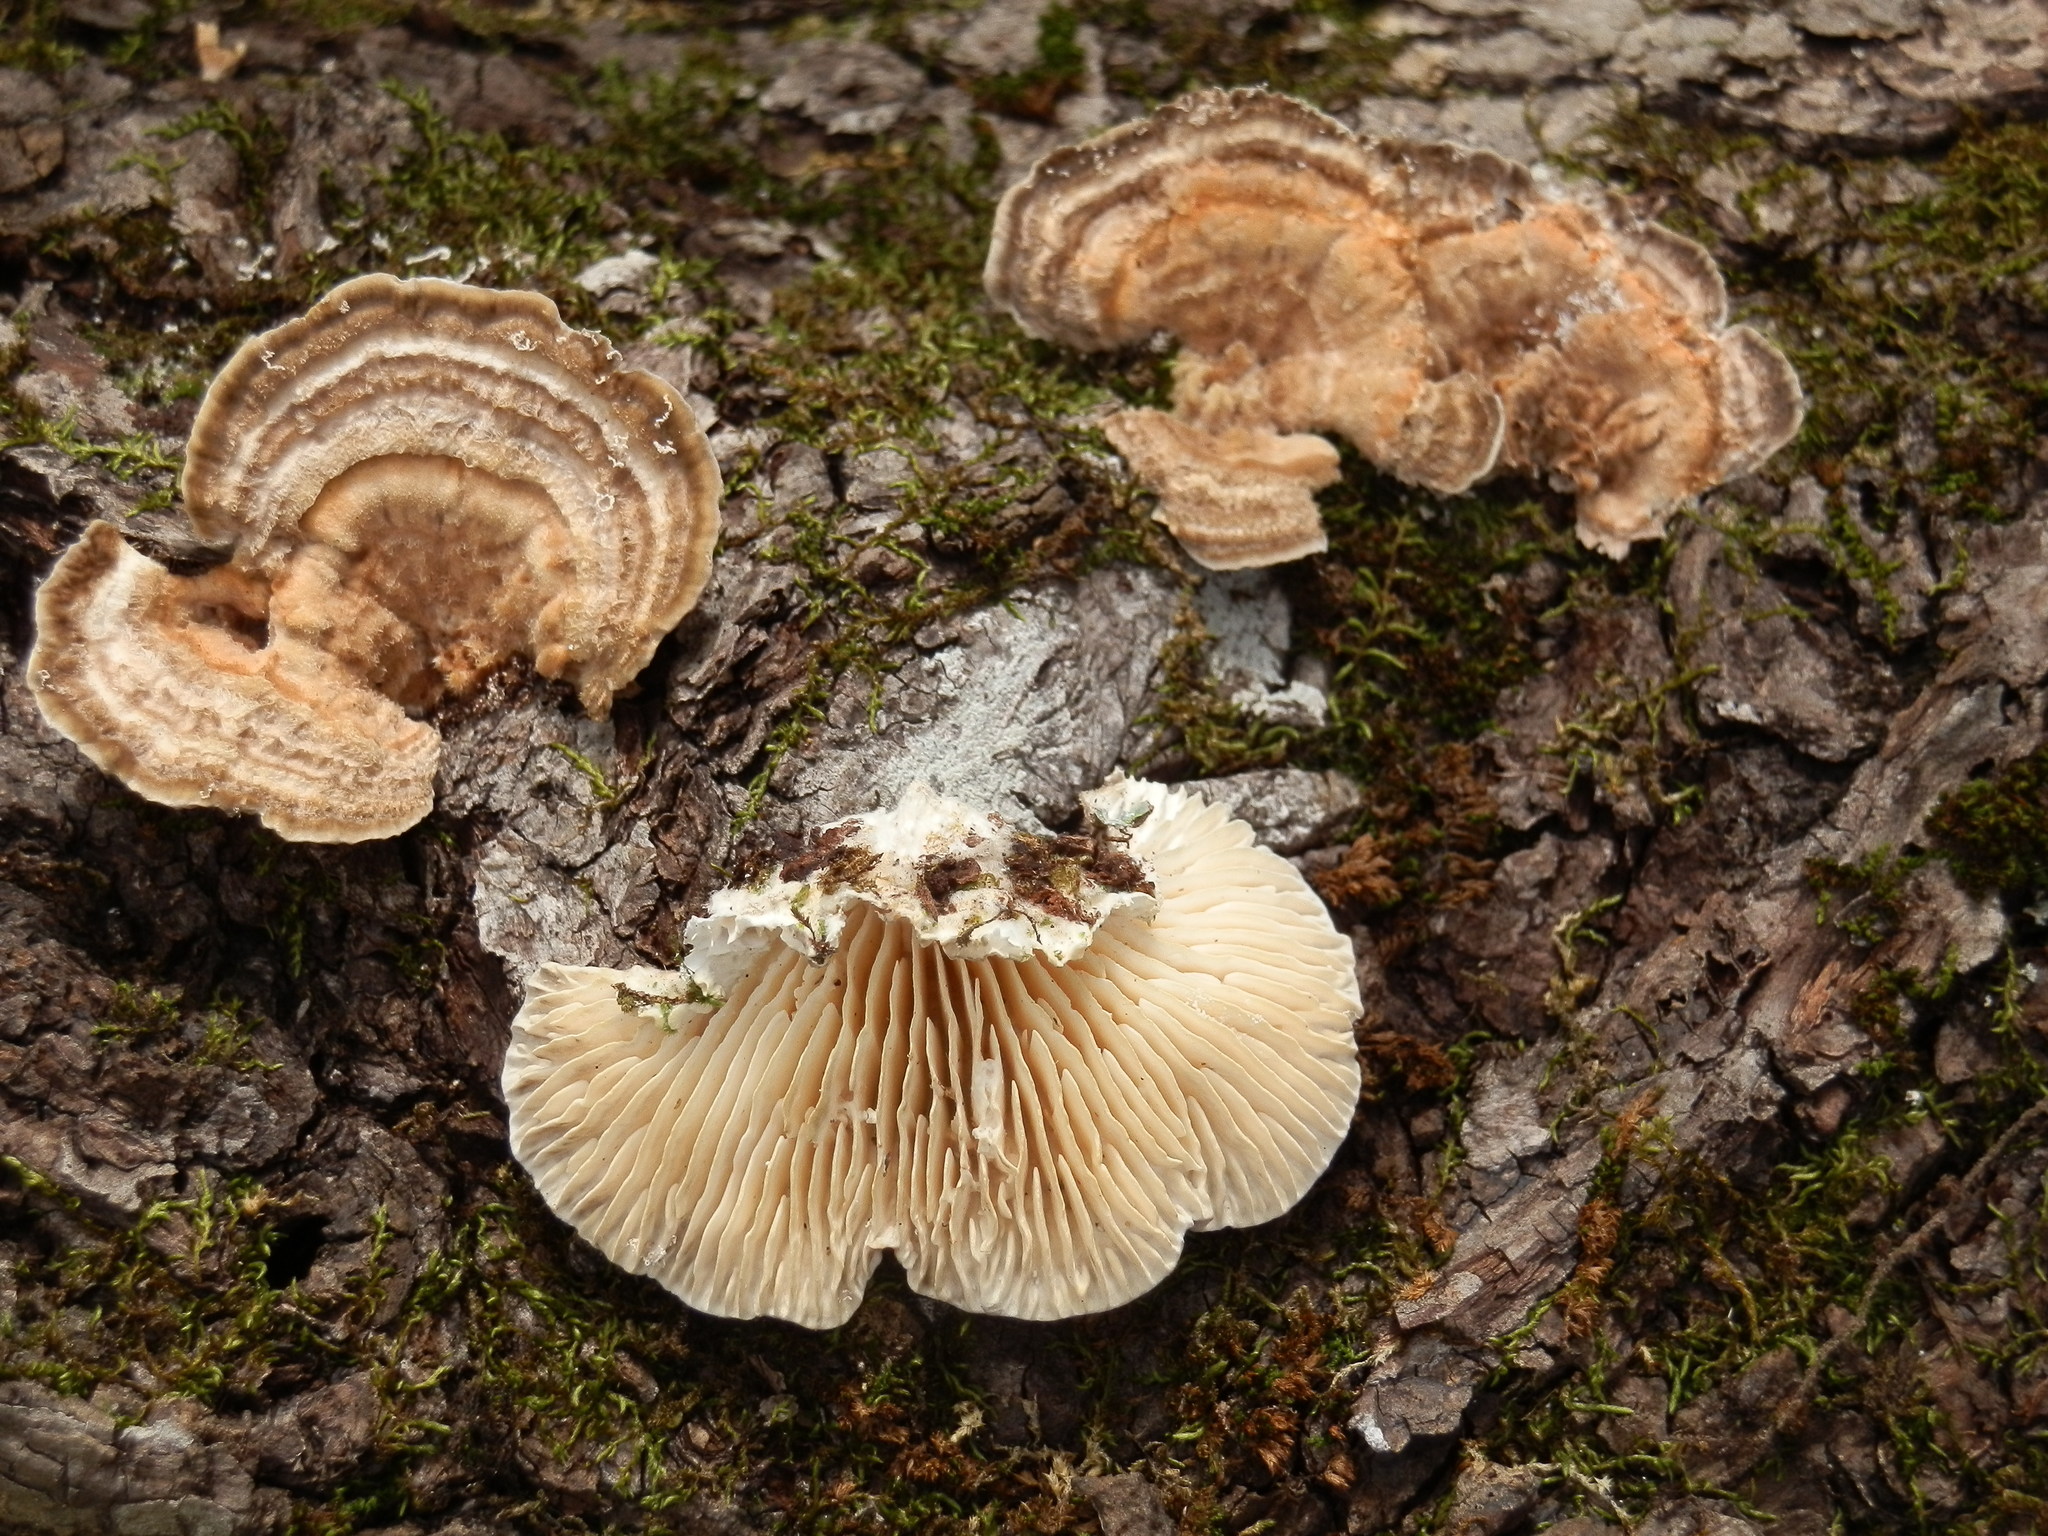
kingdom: Fungi
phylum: Basidiomycota
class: Agaricomycetes
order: Polyporales
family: Polyporaceae
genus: Lenzites
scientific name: Lenzites betulinus
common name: Birch mazegill
